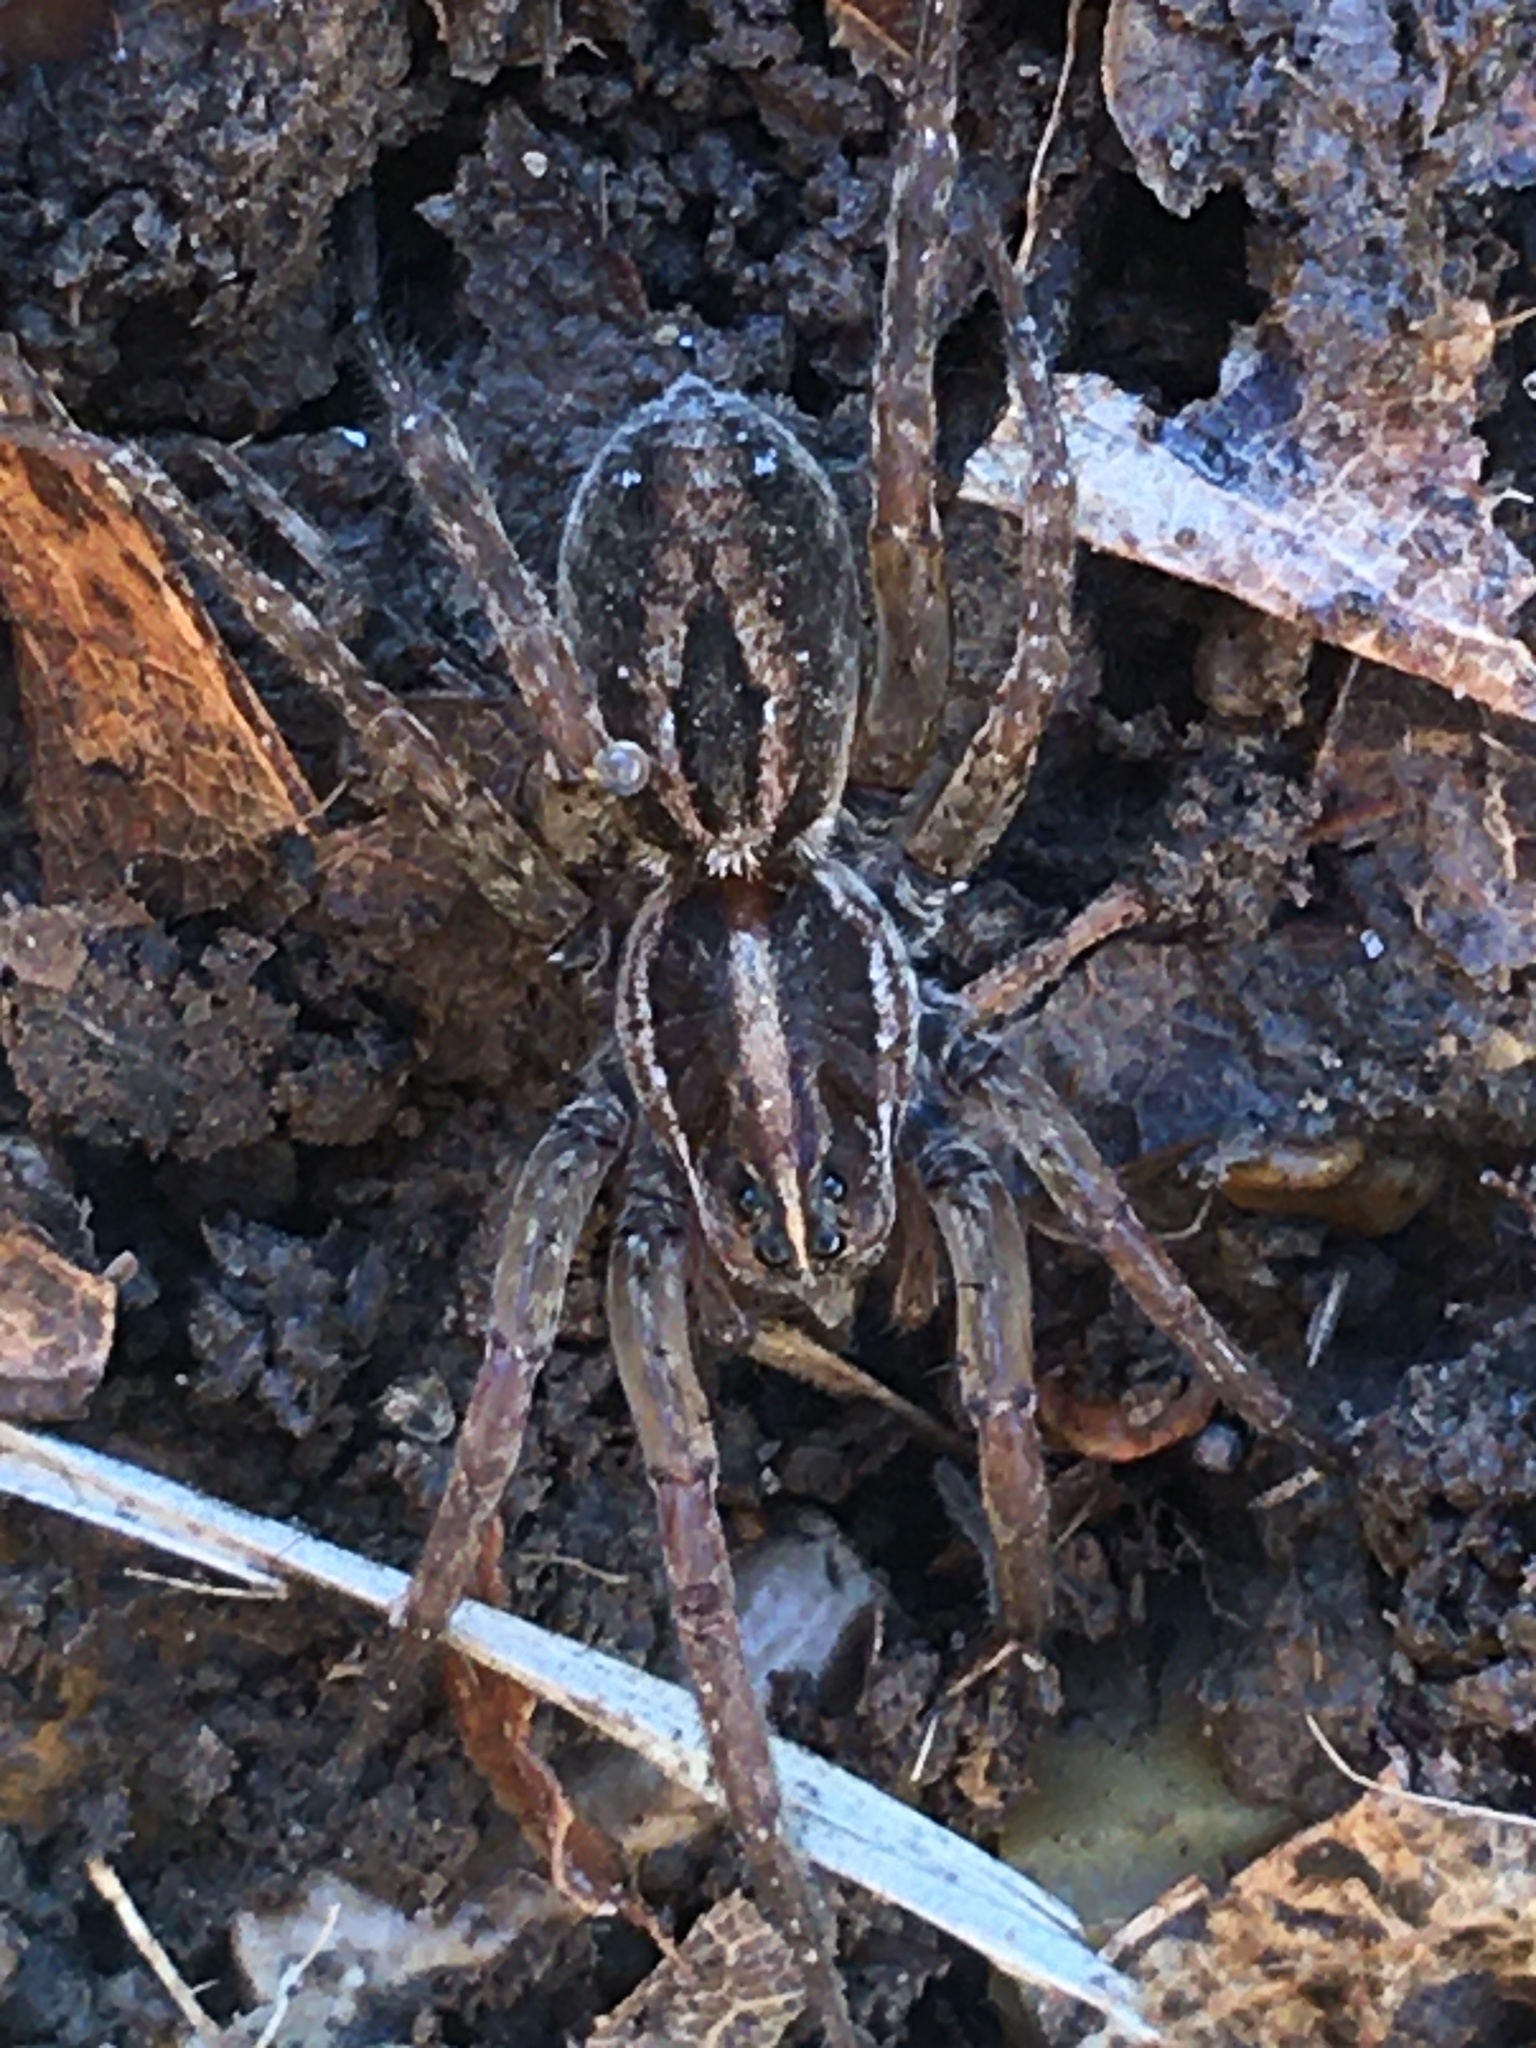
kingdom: Animalia
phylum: Arthropoda
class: Arachnida
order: Araneae
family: Lycosidae
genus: Tigrosa
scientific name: Tigrosa annexa
